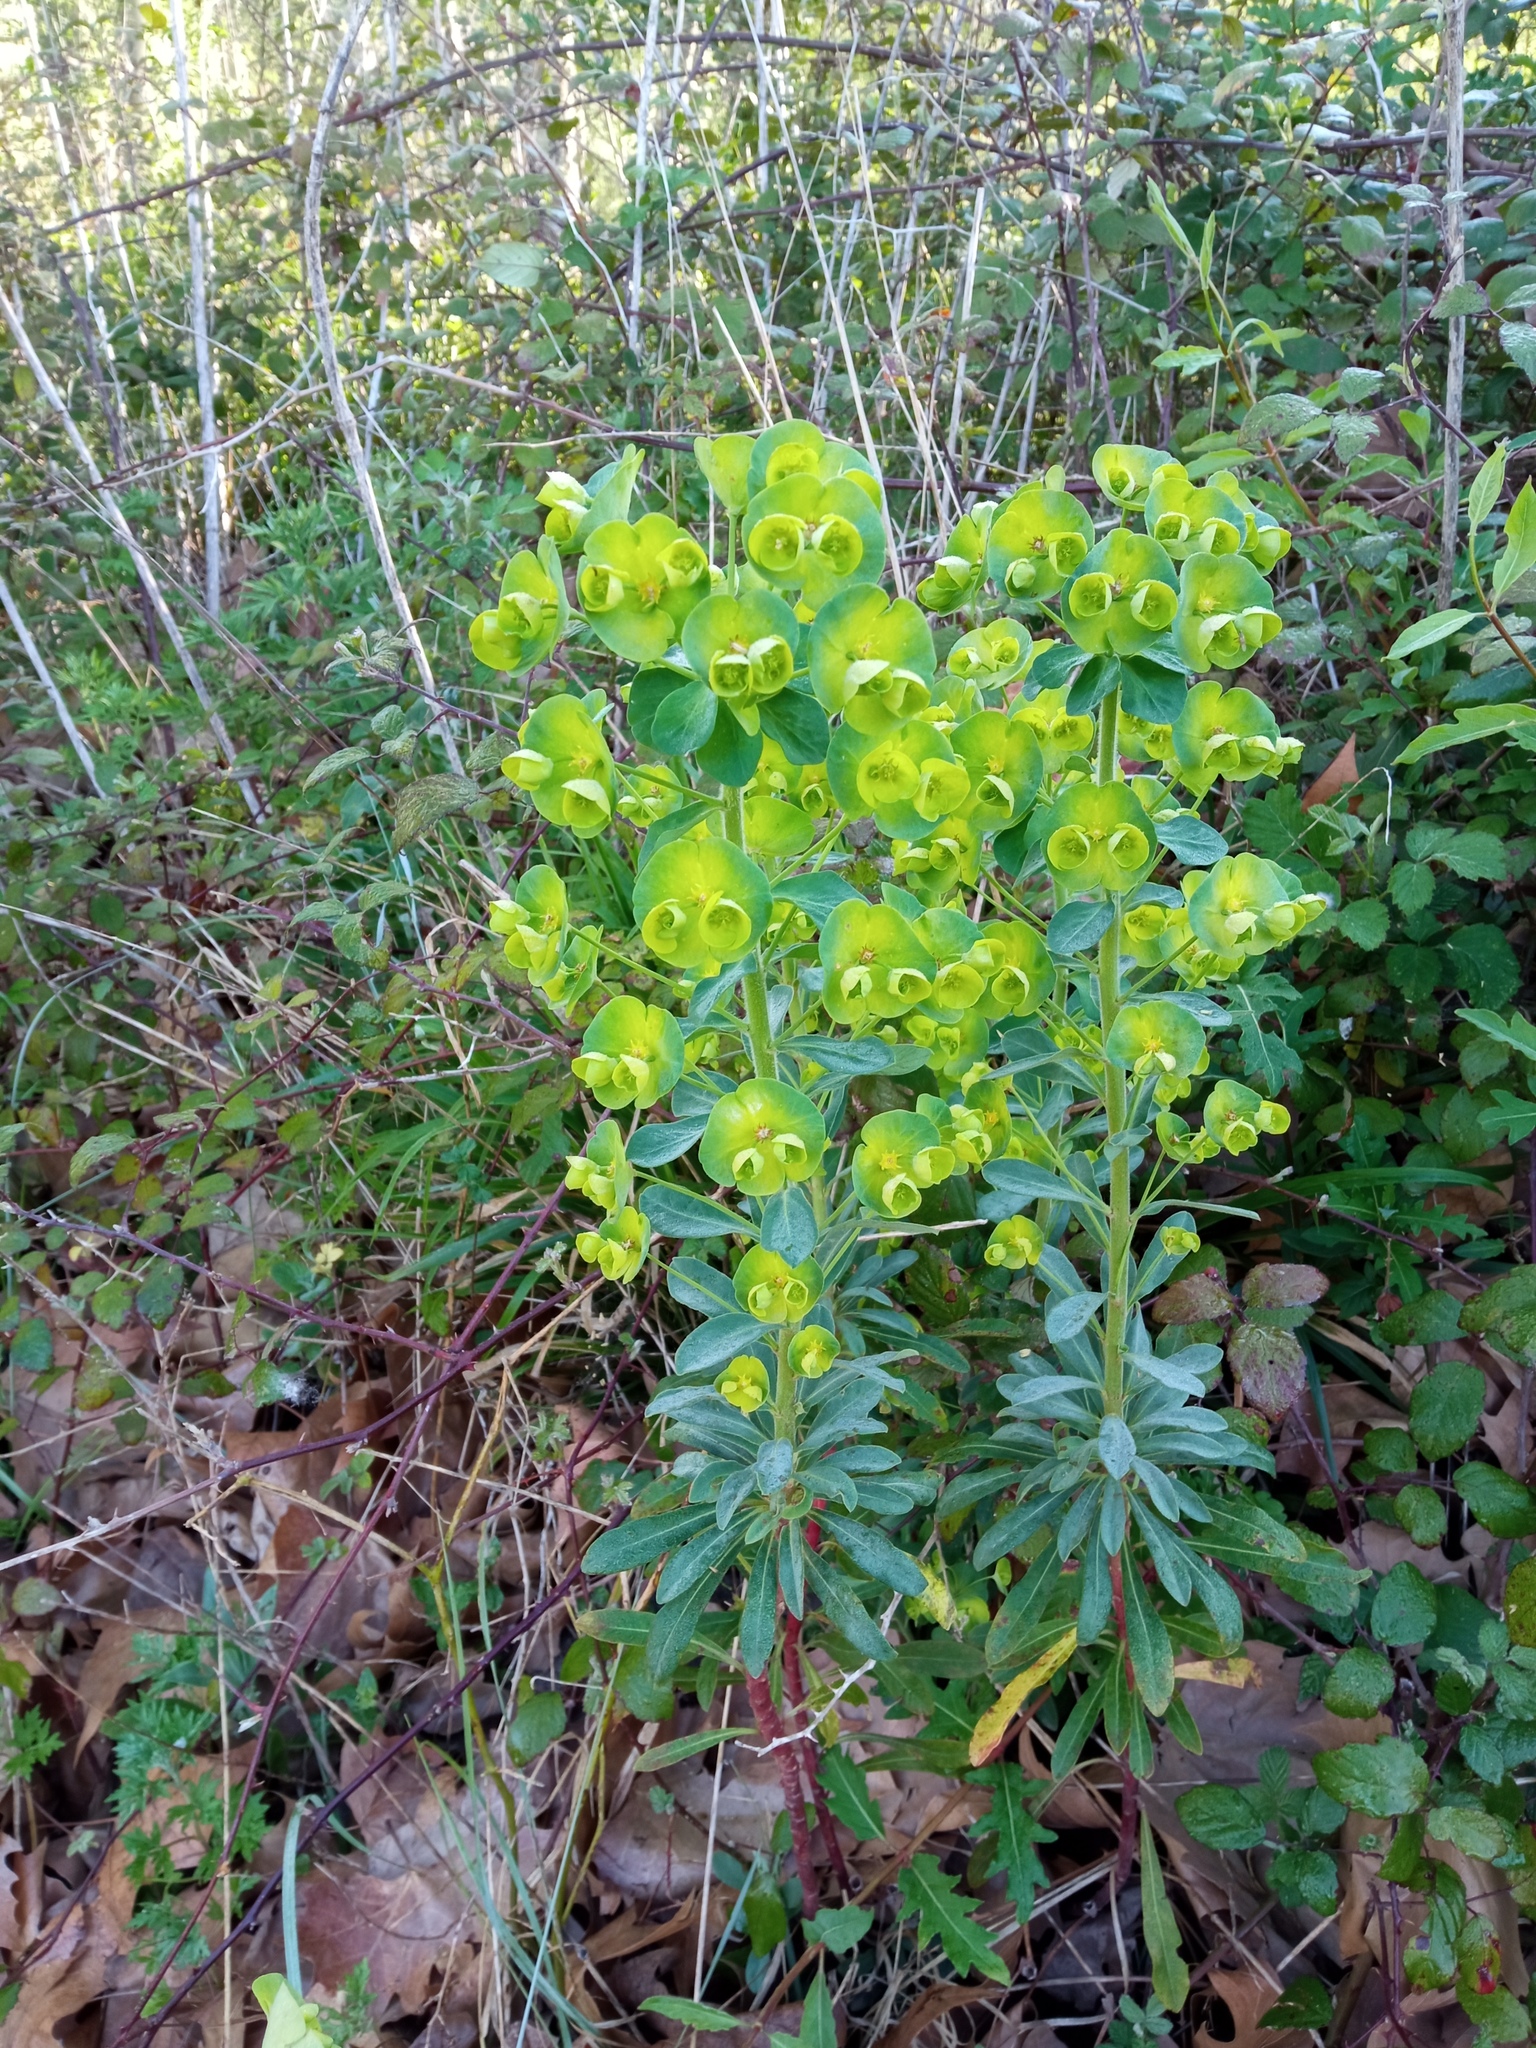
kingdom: Plantae
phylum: Tracheophyta
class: Magnoliopsida
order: Malpighiales
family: Euphorbiaceae
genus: Euphorbia
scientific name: Euphorbia amygdaloides
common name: Wood spurge
